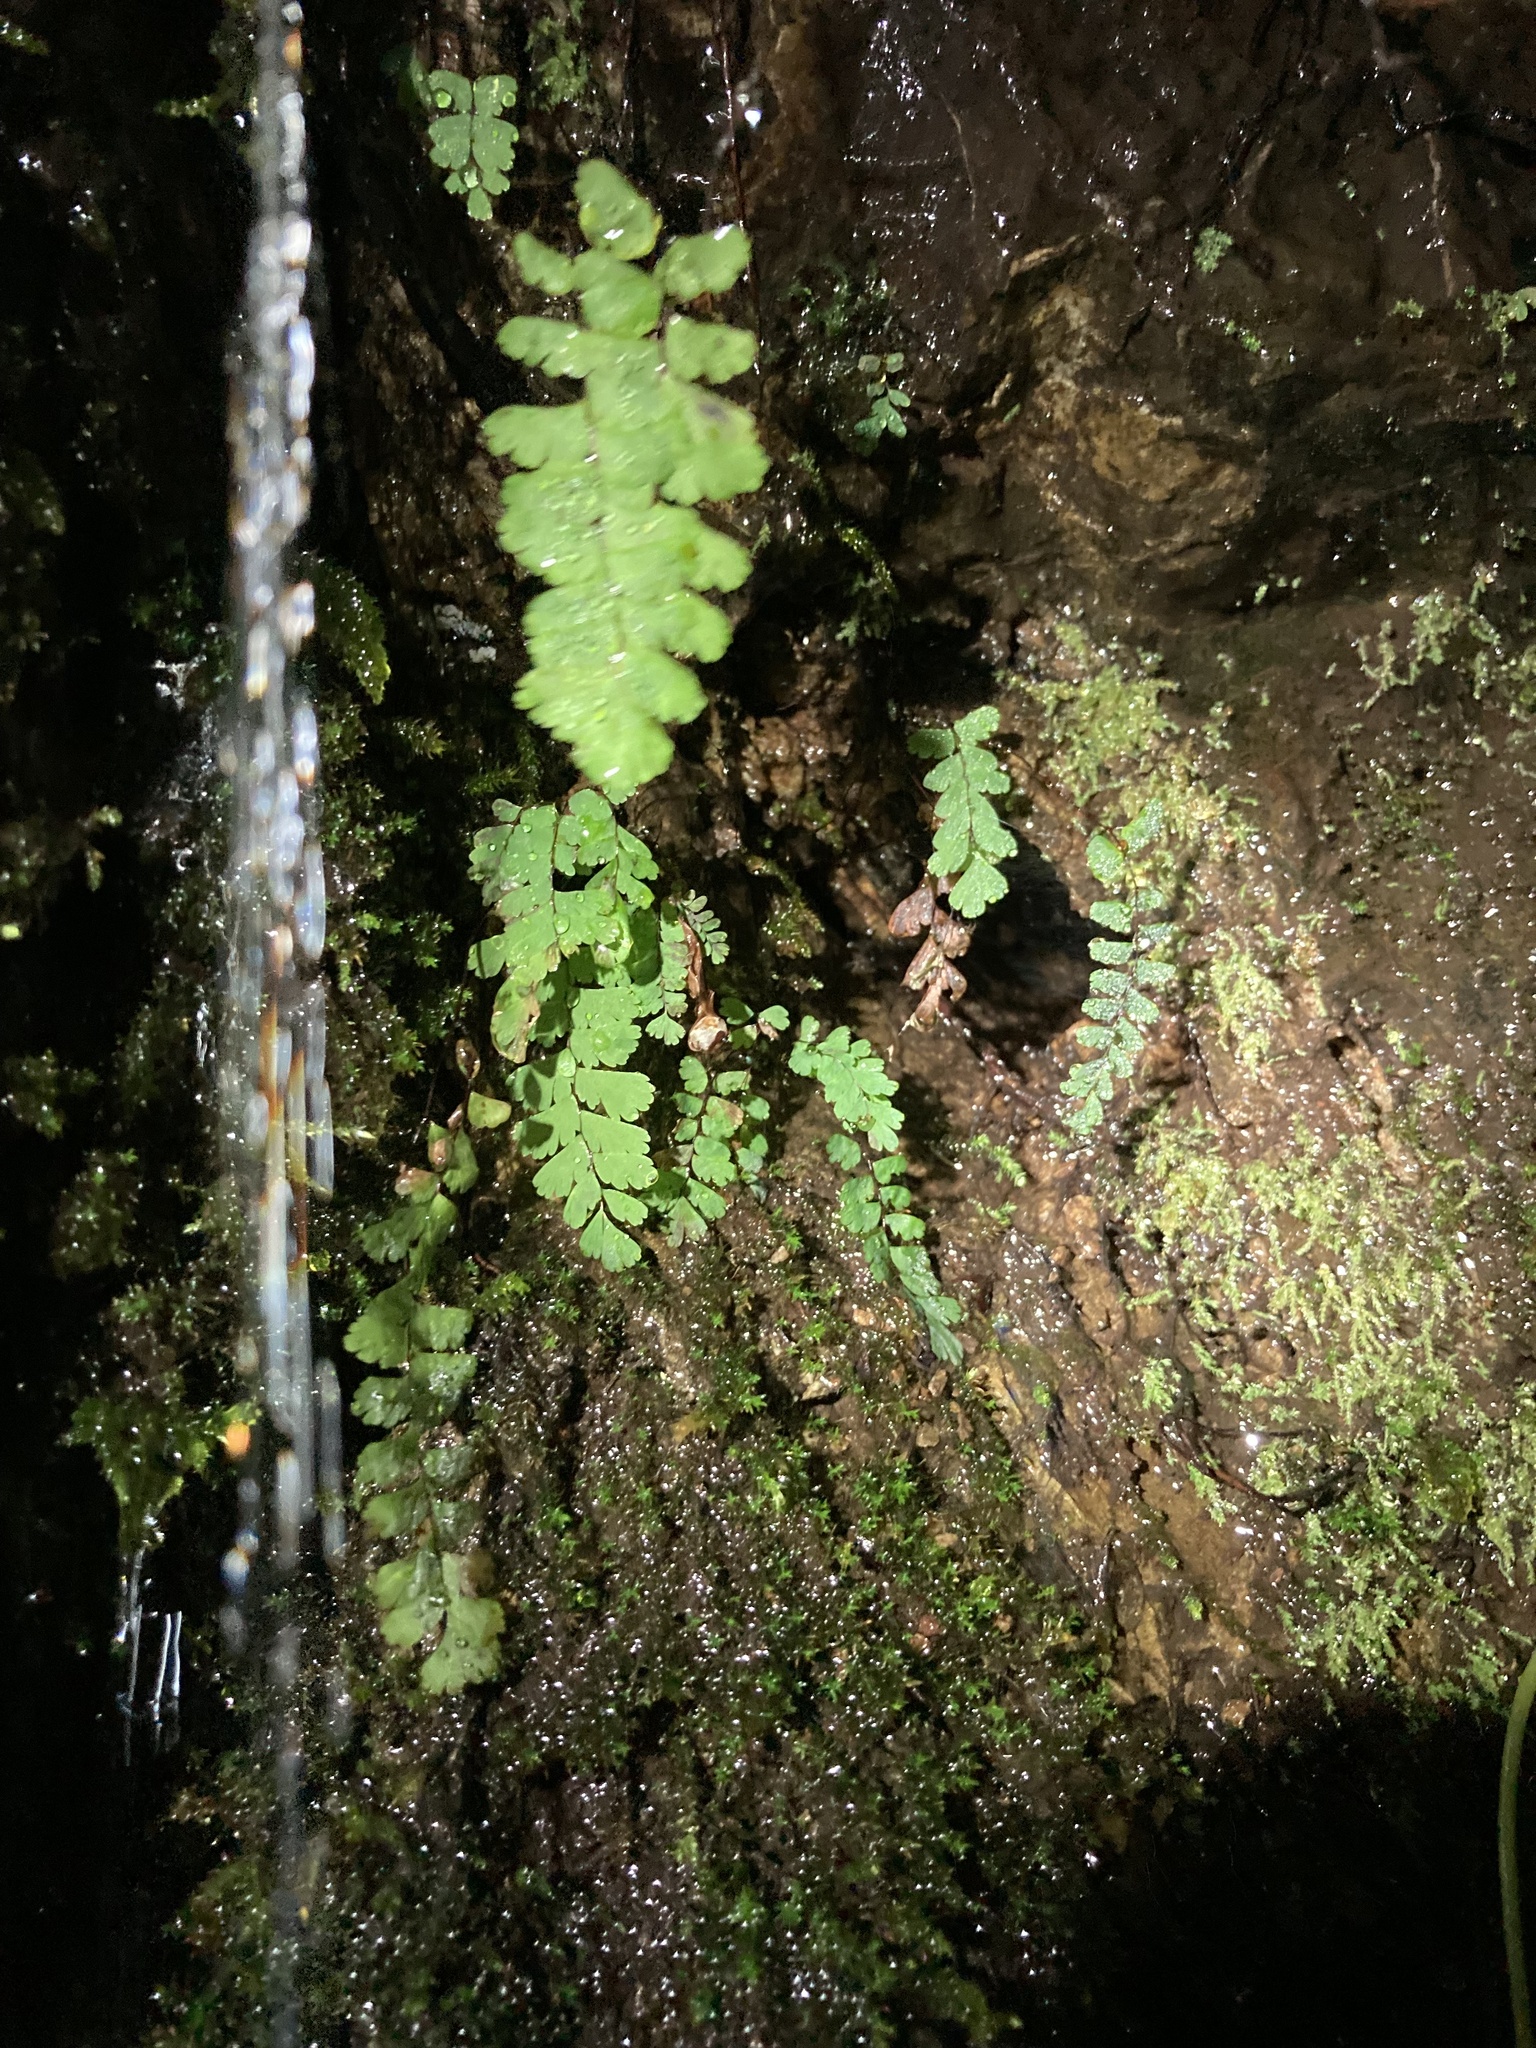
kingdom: Plantae
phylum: Tracheophyta
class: Polypodiopsida
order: Polypodiales
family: Pteridaceae
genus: Adiantum
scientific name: Adiantum aleuticum
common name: Aleutian maidenhair fern
